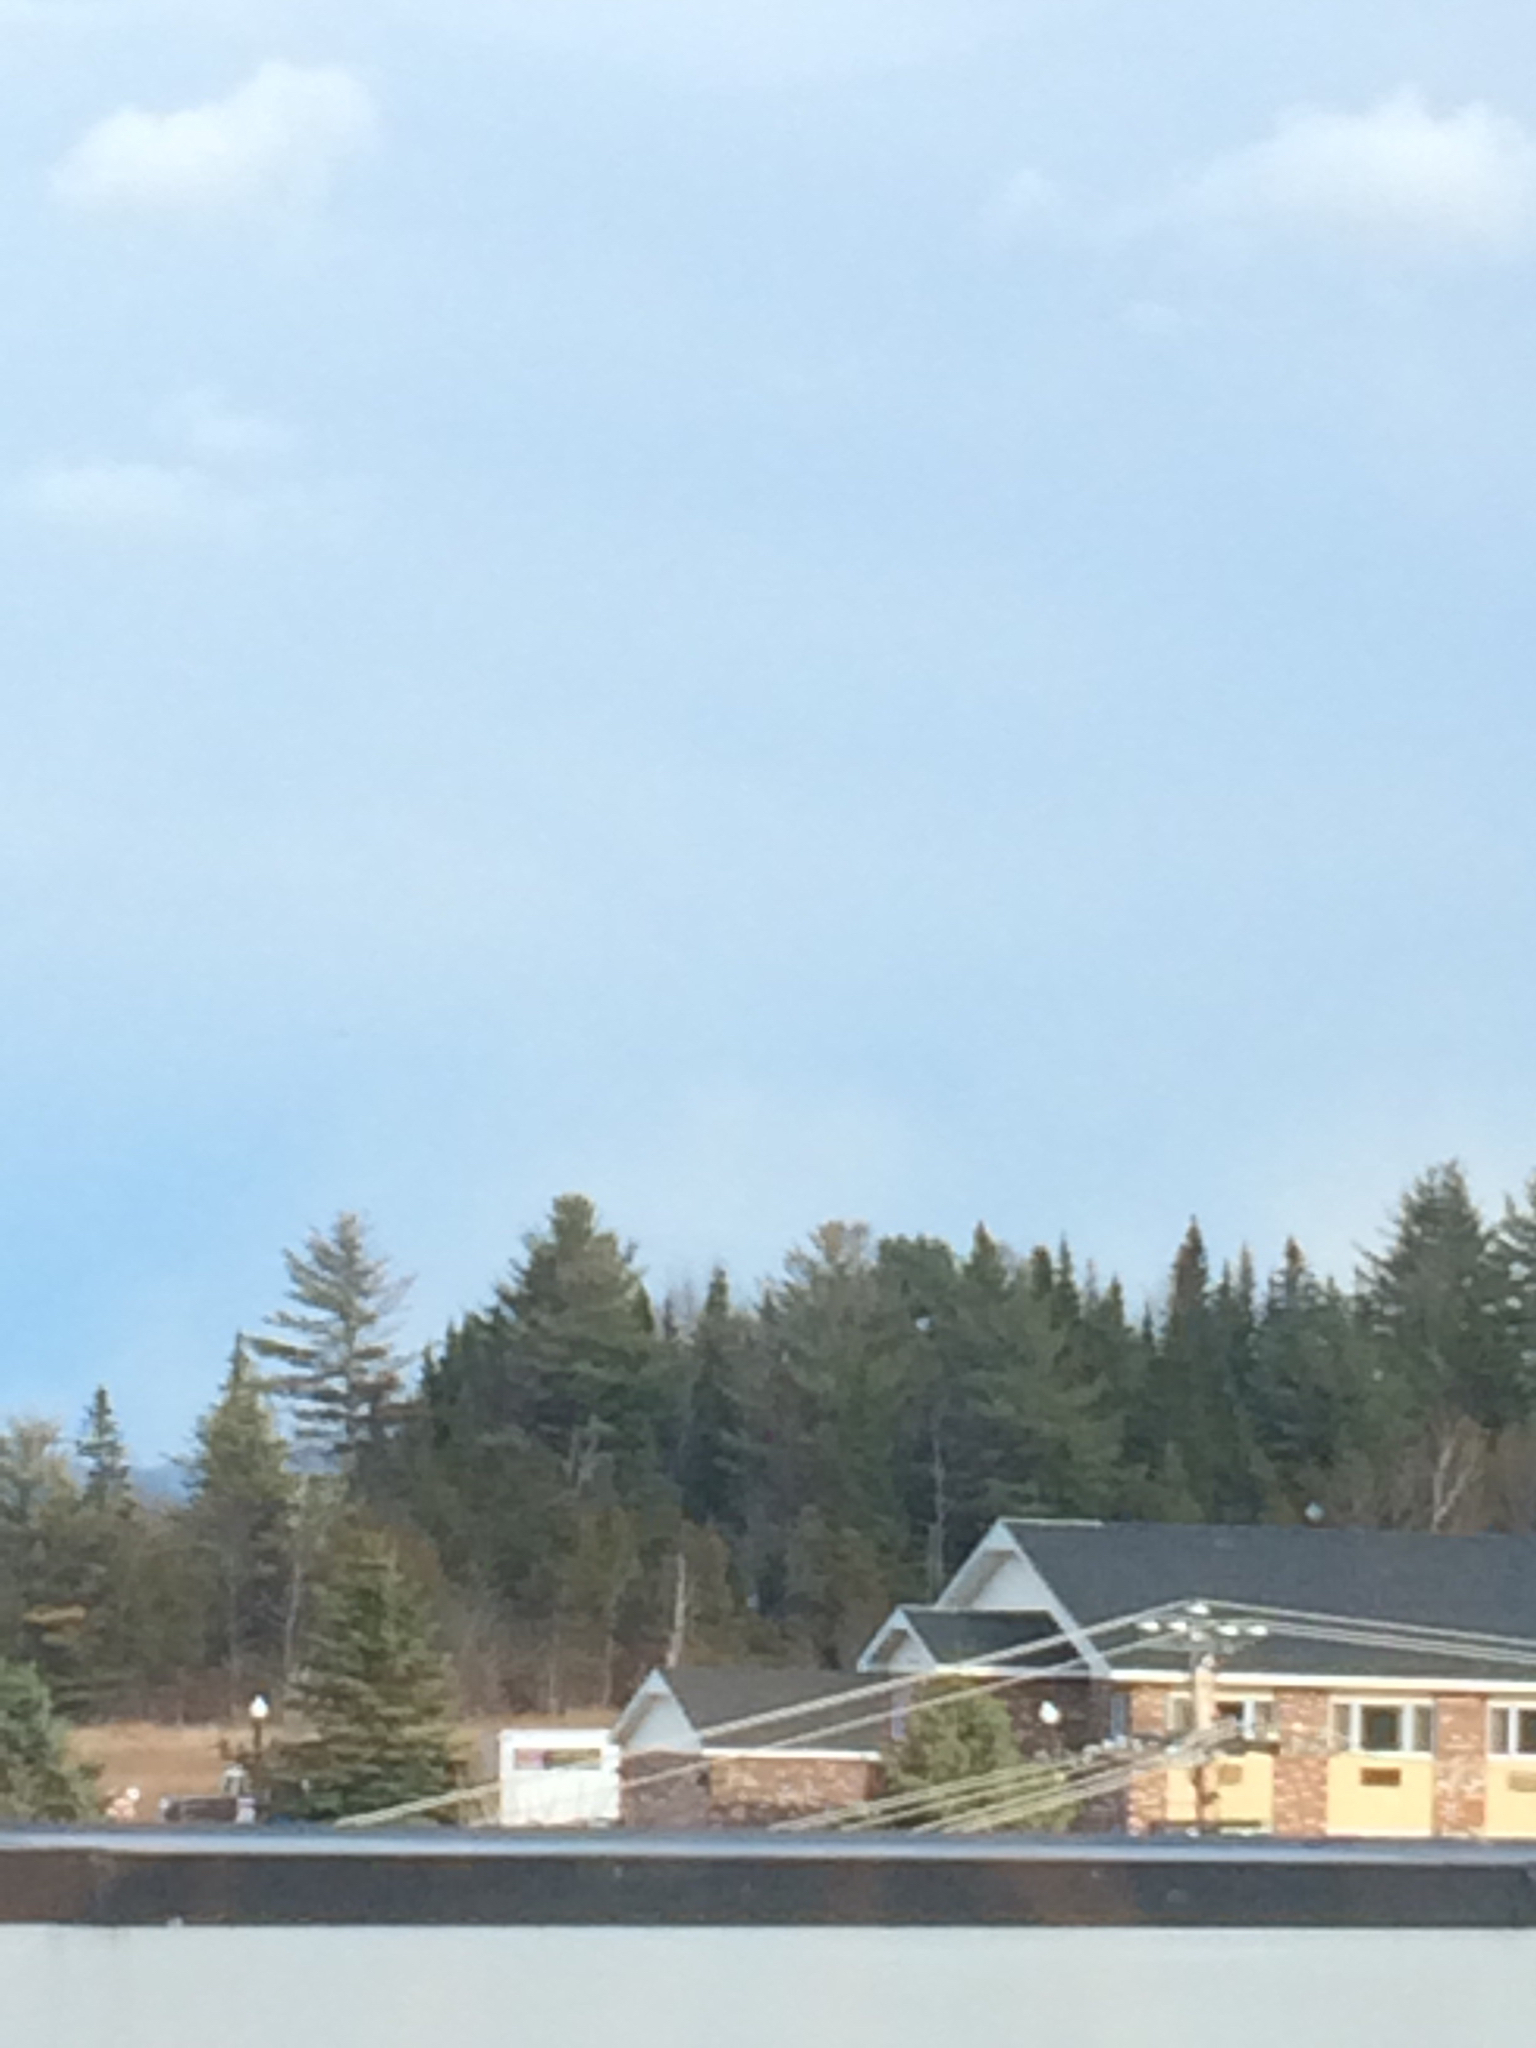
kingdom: Plantae
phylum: Tracheophyta
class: Pinopsida
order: Pinales
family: Pinaceae
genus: Abies
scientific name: Abies balsamea
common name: Balsam fir
